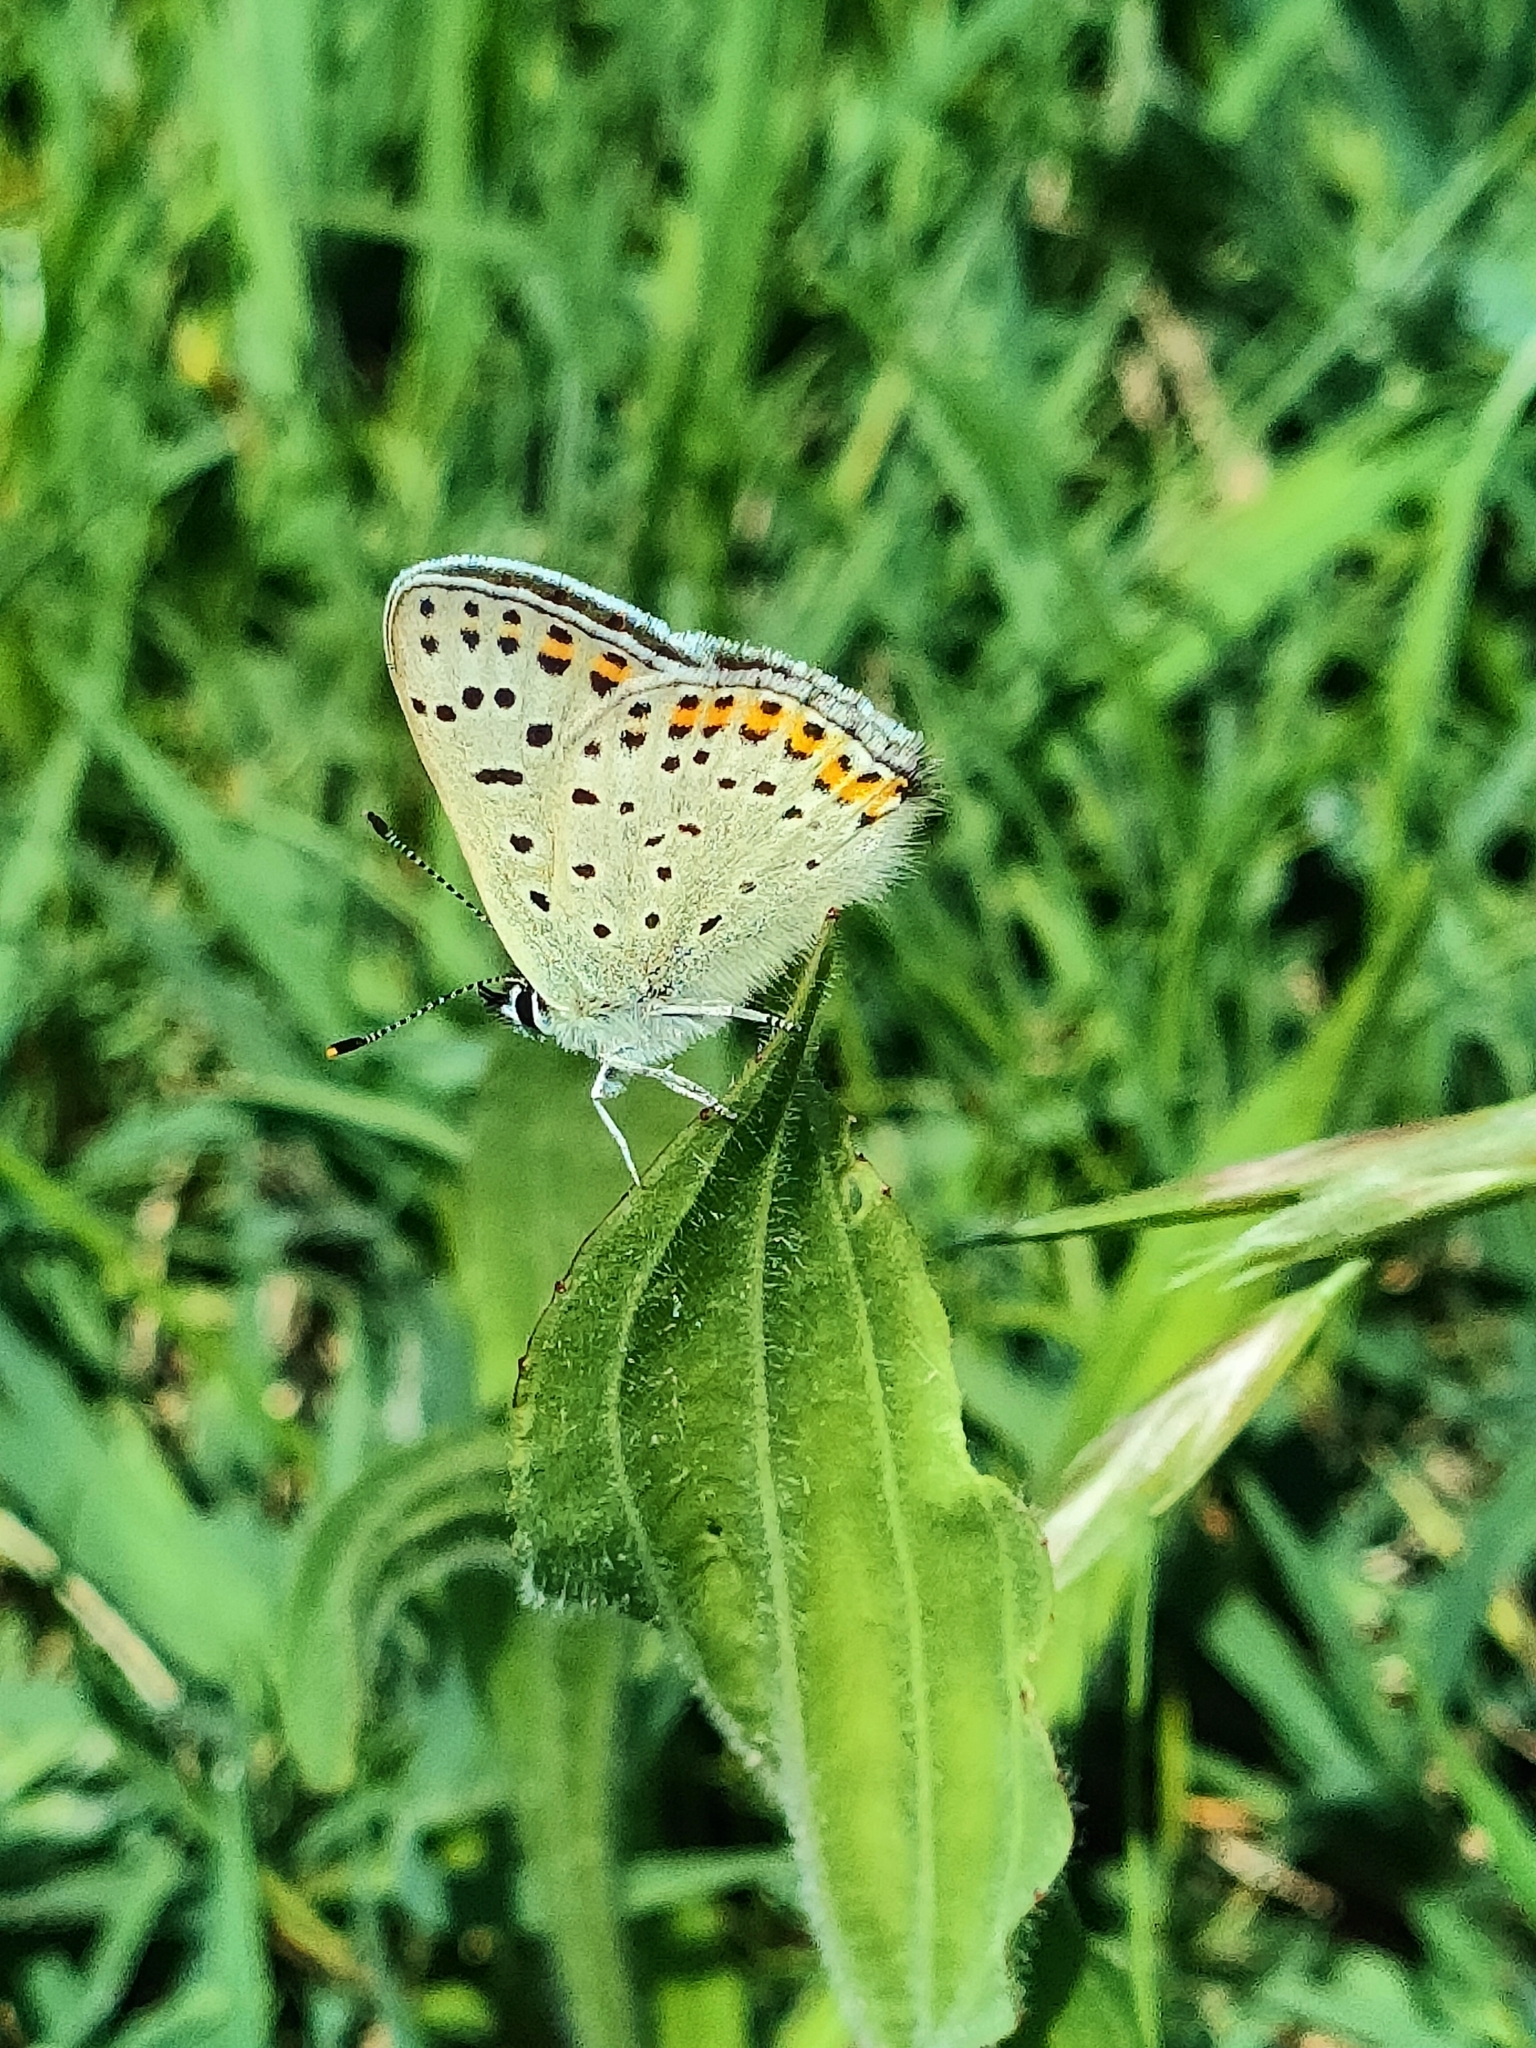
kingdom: Animalia
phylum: Arthropoda
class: Insecta
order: Lepidoptera
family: Lycaenidae
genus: Loweia
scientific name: Loweia tityrus
